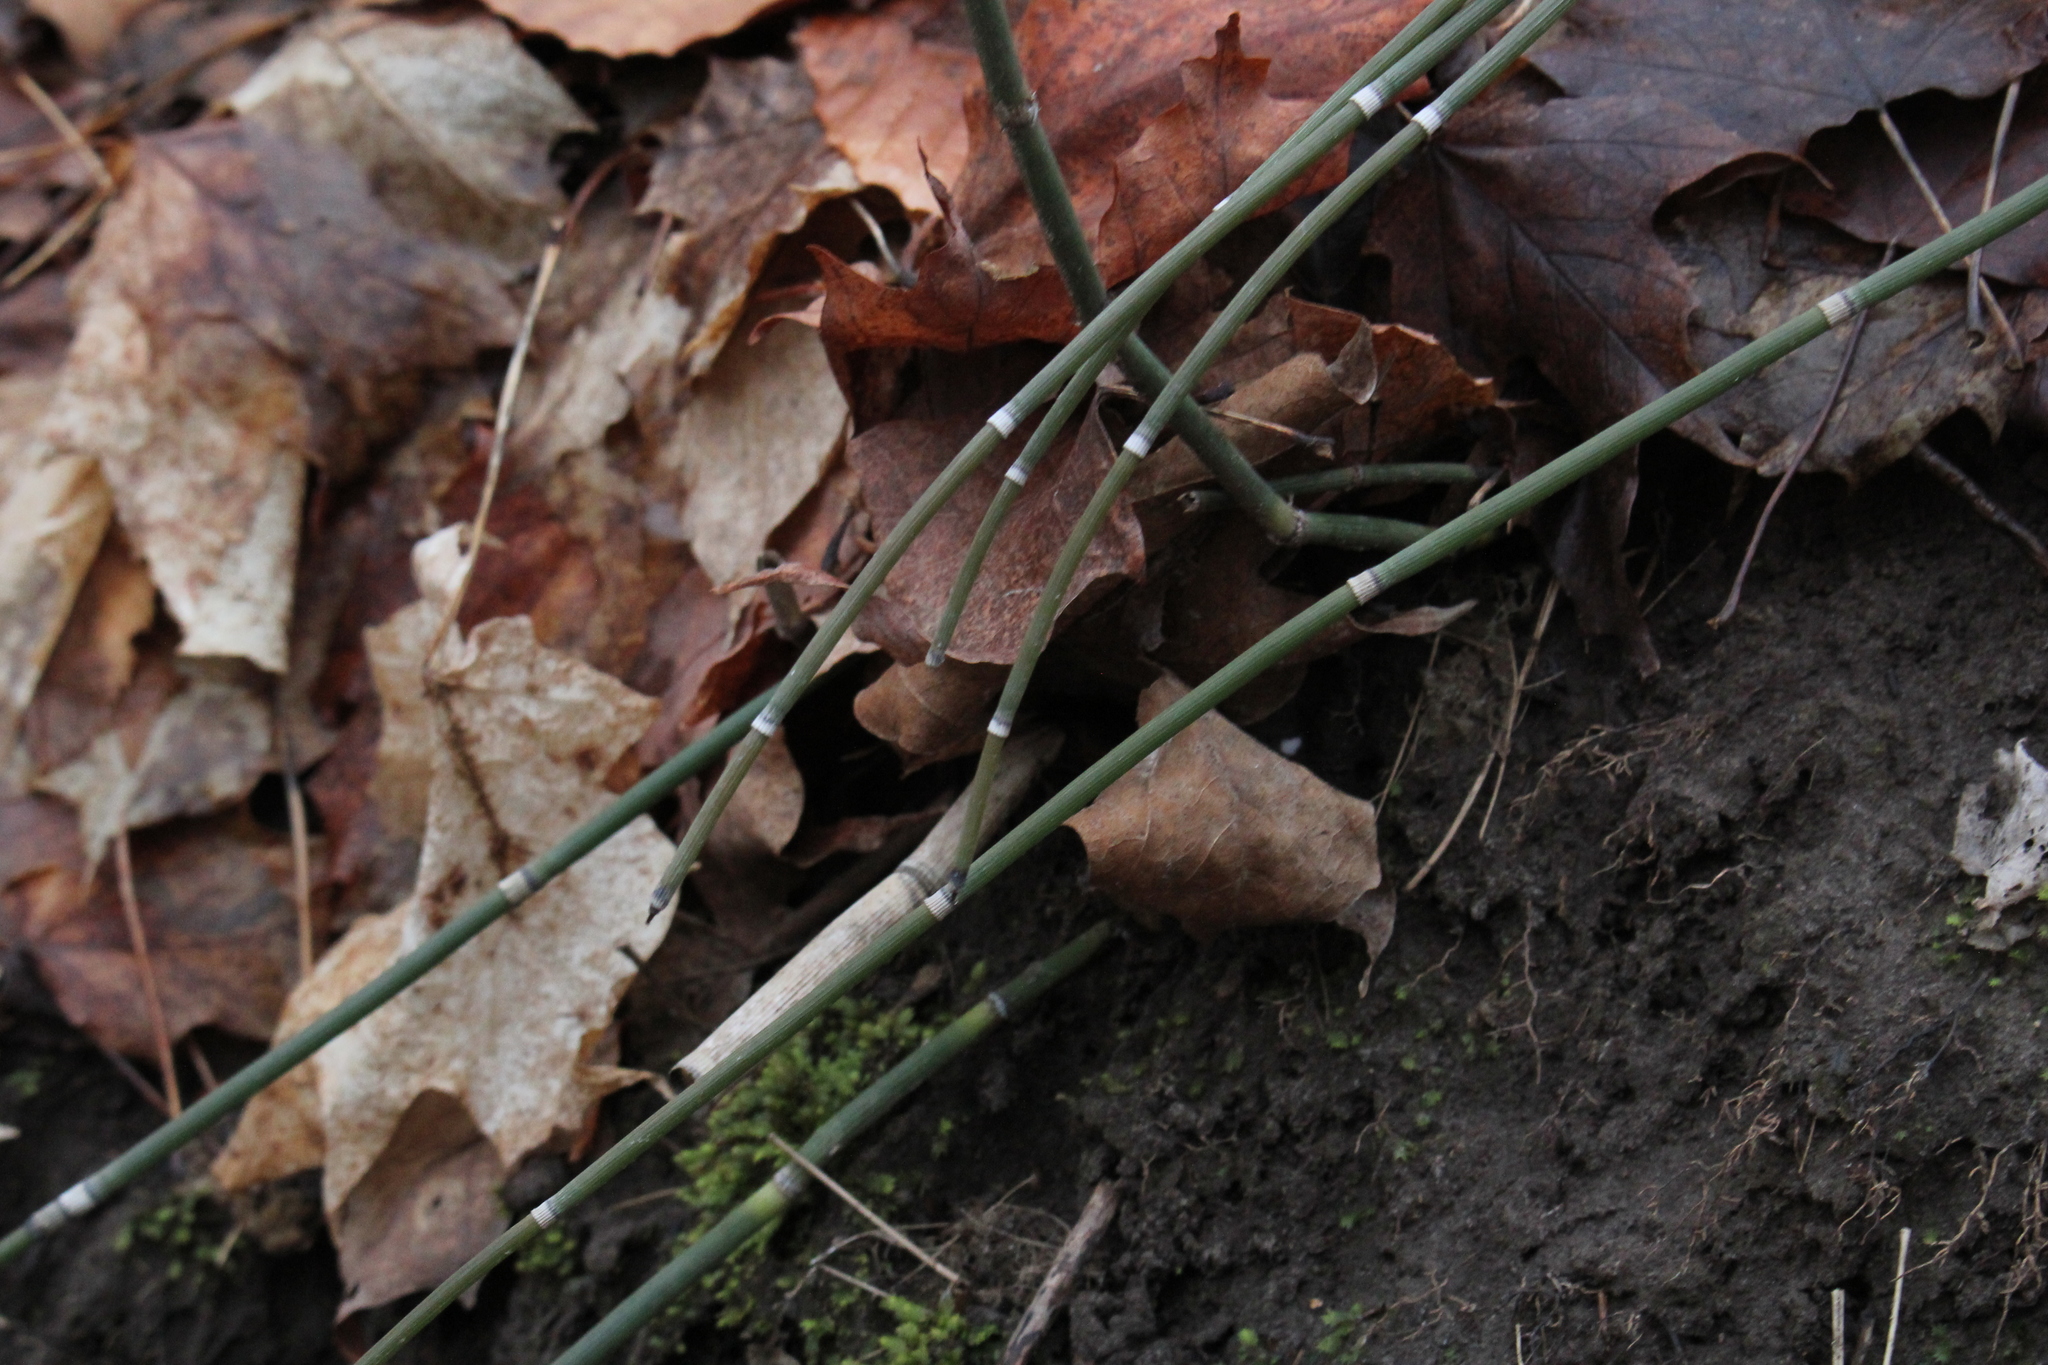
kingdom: Plantae
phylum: Tracheophyta
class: Polypodiopsida
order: Equisetales
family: Equisetaceae
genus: Equisetum
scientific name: Equisetum praealtum
